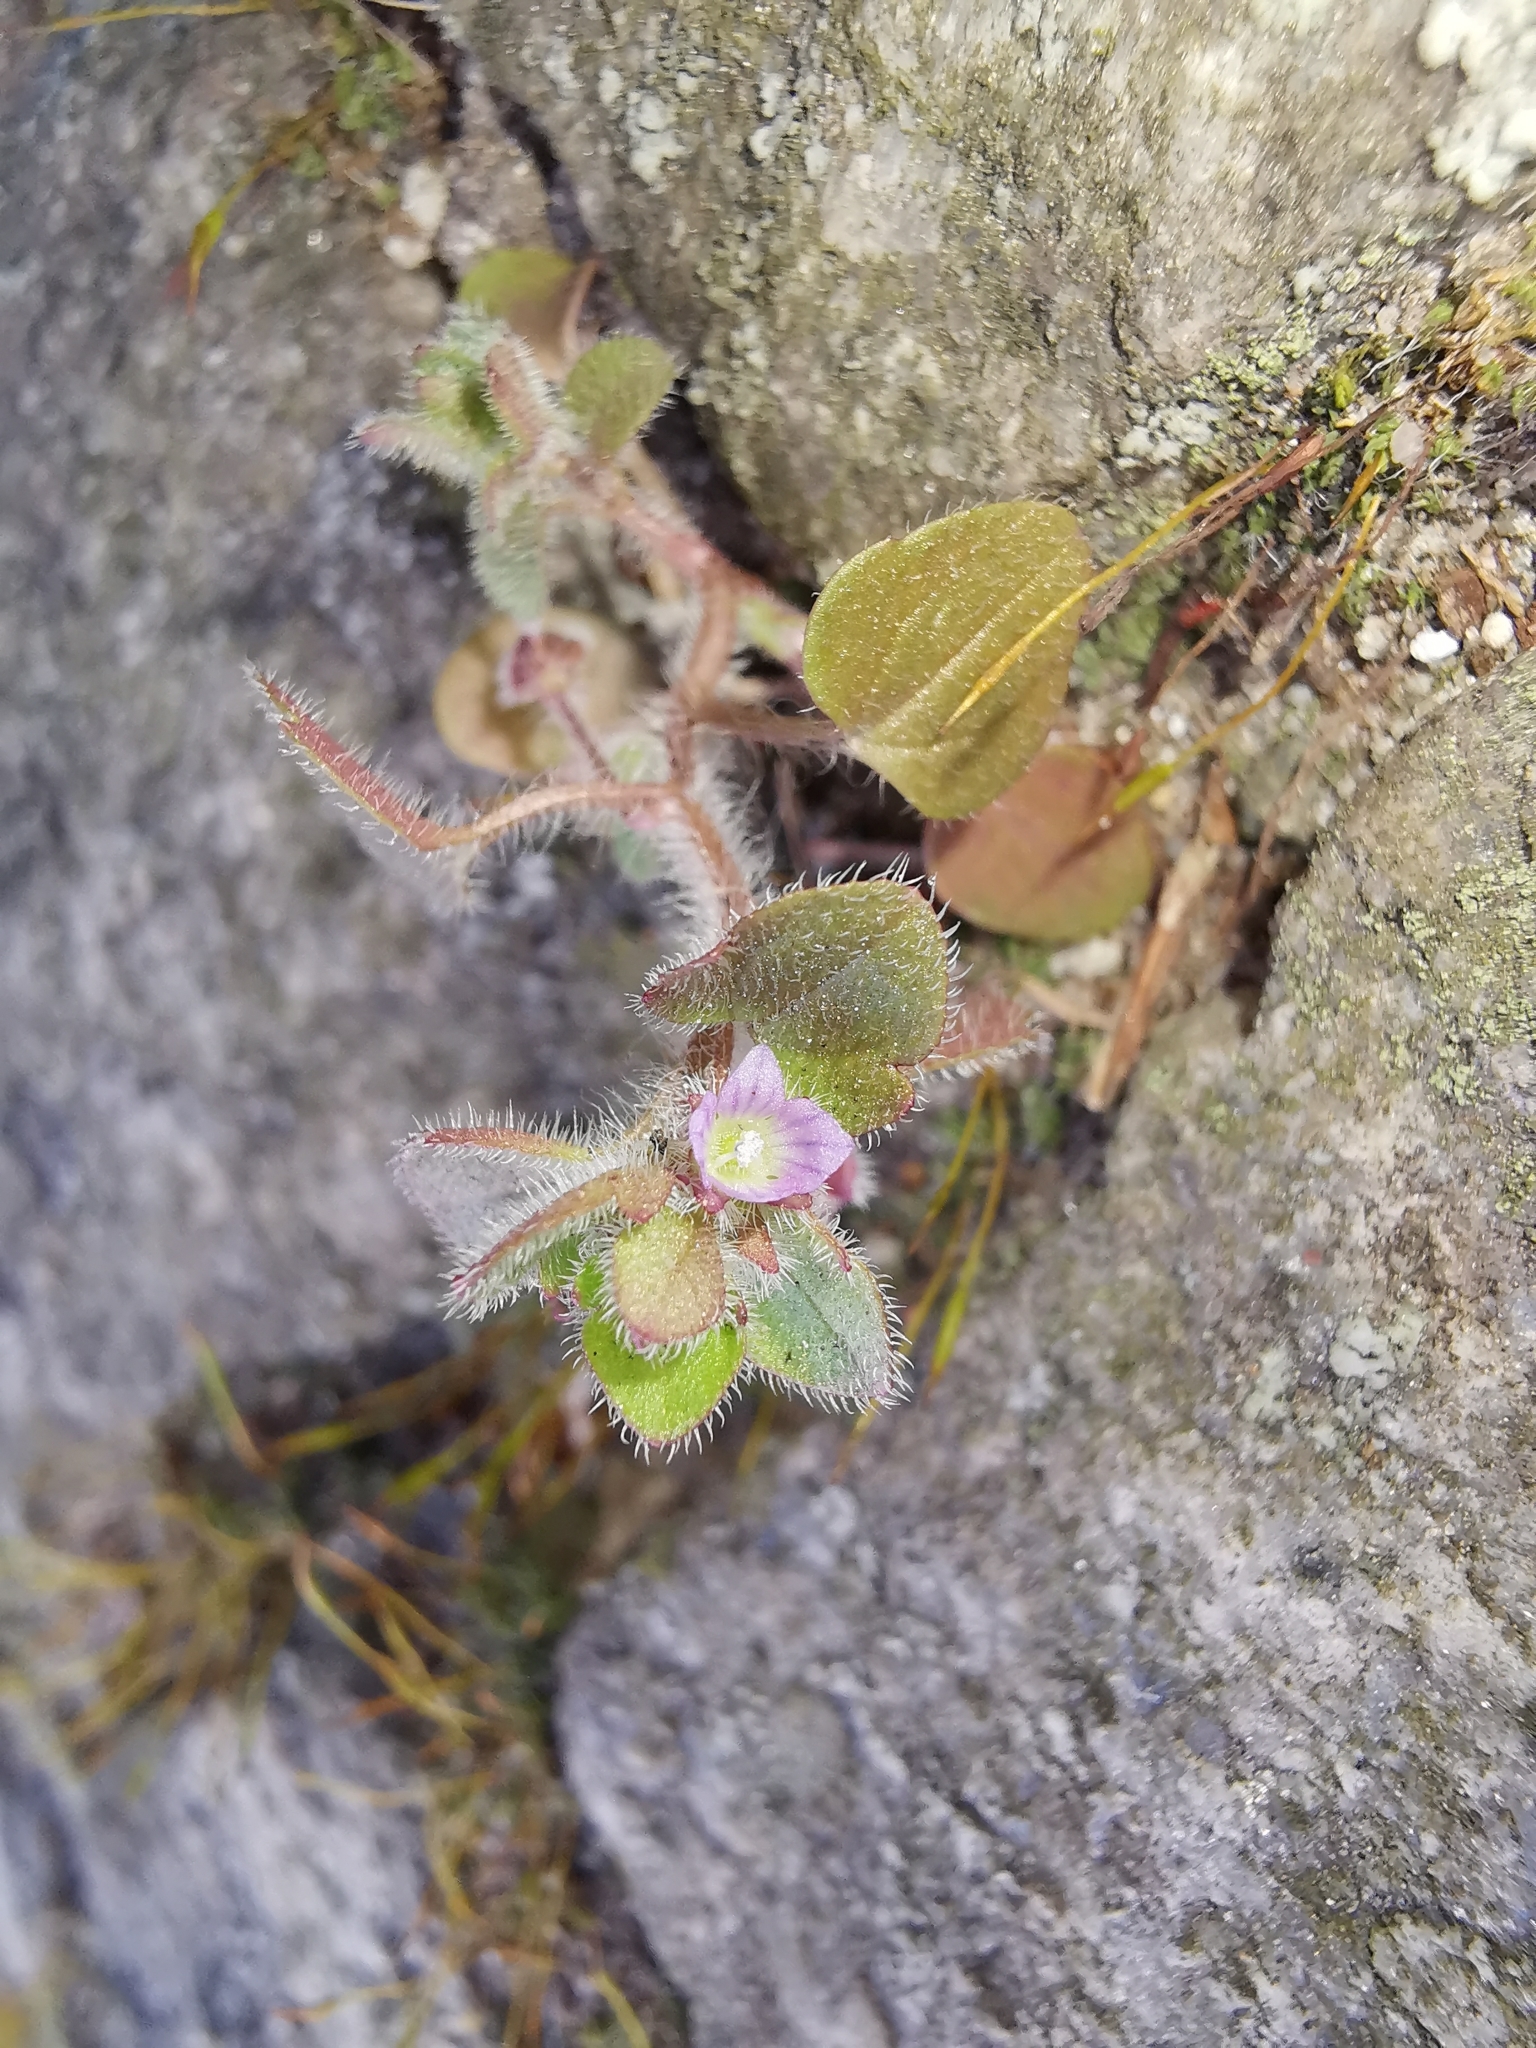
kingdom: Plantae
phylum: Tracheophyta
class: Magnoliopsida
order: Lamiales
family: Plantaginaceae
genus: Veronica
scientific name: Veronica hederifolia
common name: Ivy-leaved speedwell
